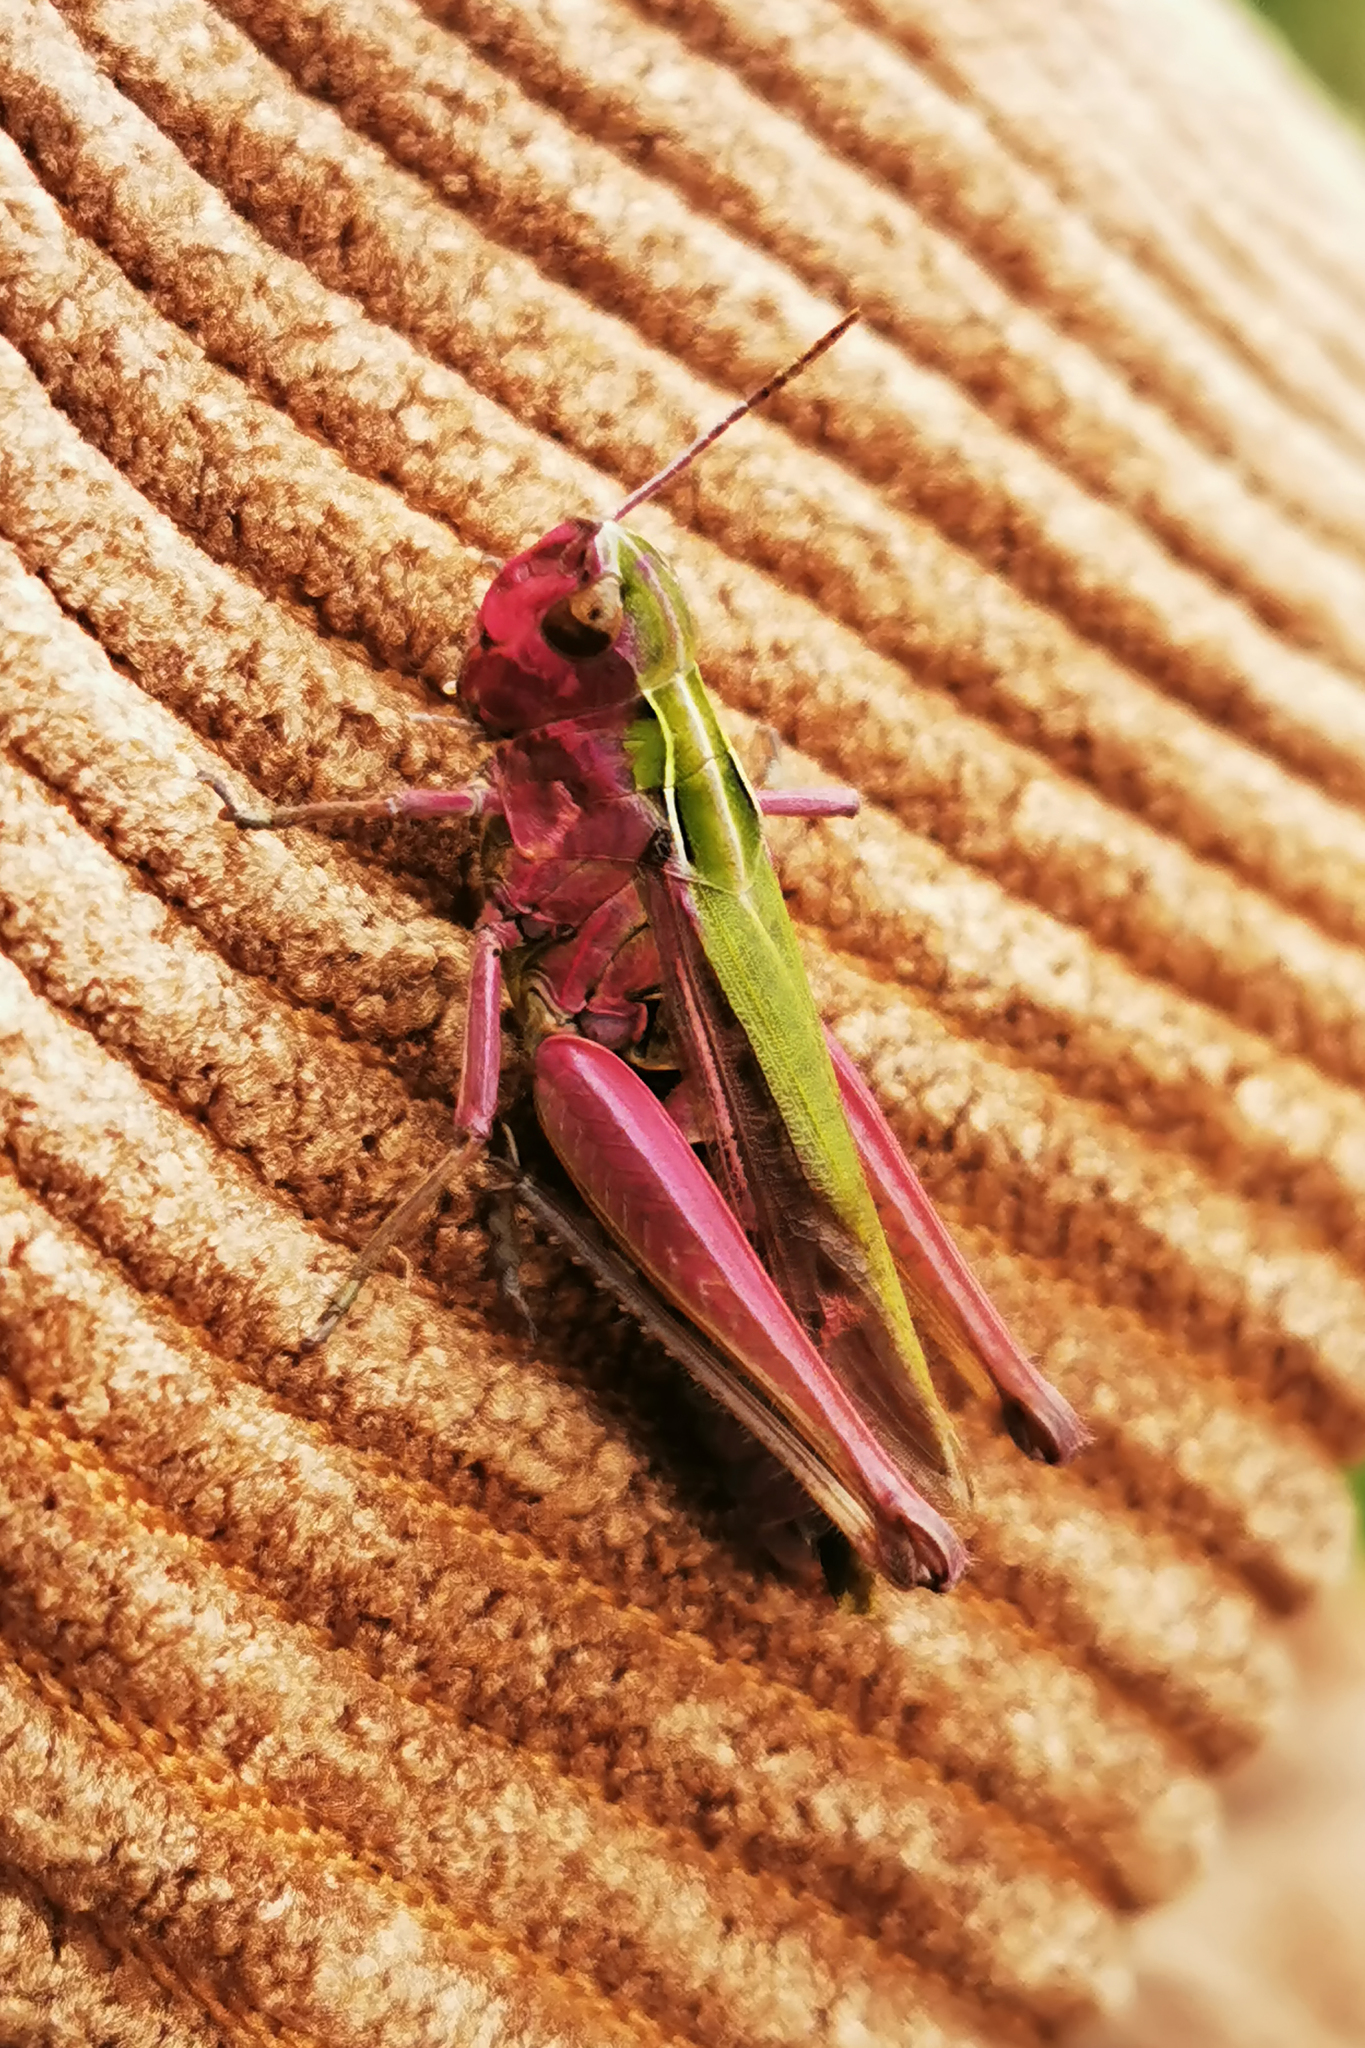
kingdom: Animalia
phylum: Arthropoda
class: Insecta
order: Orthoptera
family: Acrididae
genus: Omocestus
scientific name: Omocestus viridulus
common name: Common green grasshopper
